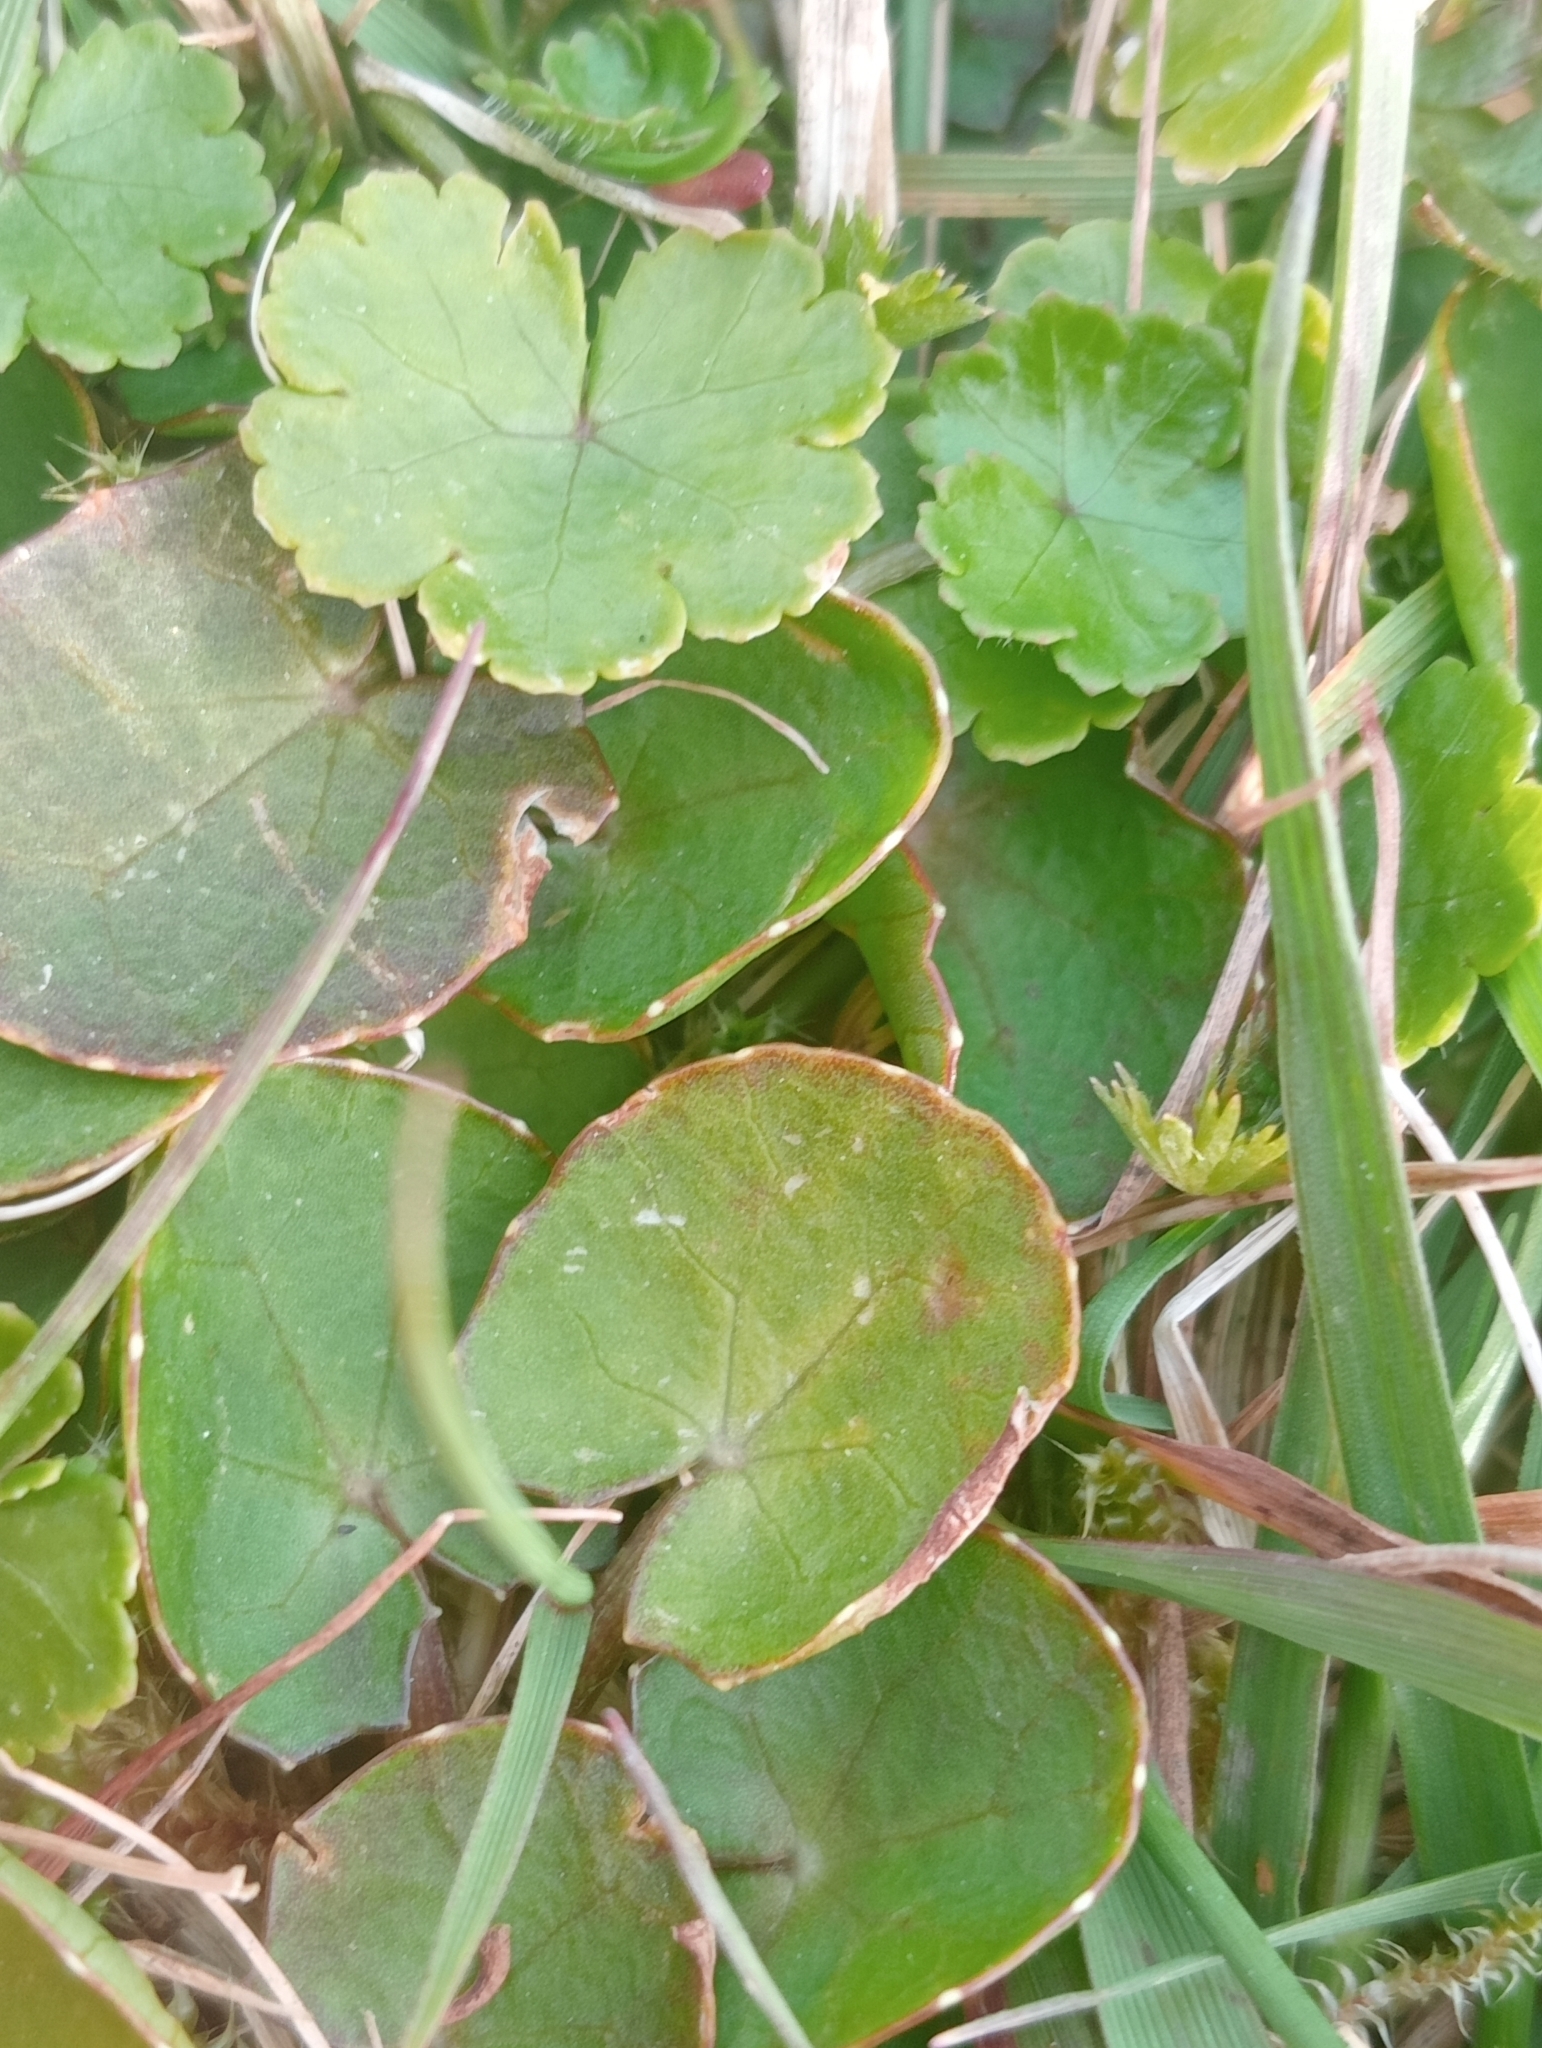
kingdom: Plantae
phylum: Tracheophyta
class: Magnoliopsida
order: Apiales
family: Apiaceae
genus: Centella
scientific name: Centella uniflora
